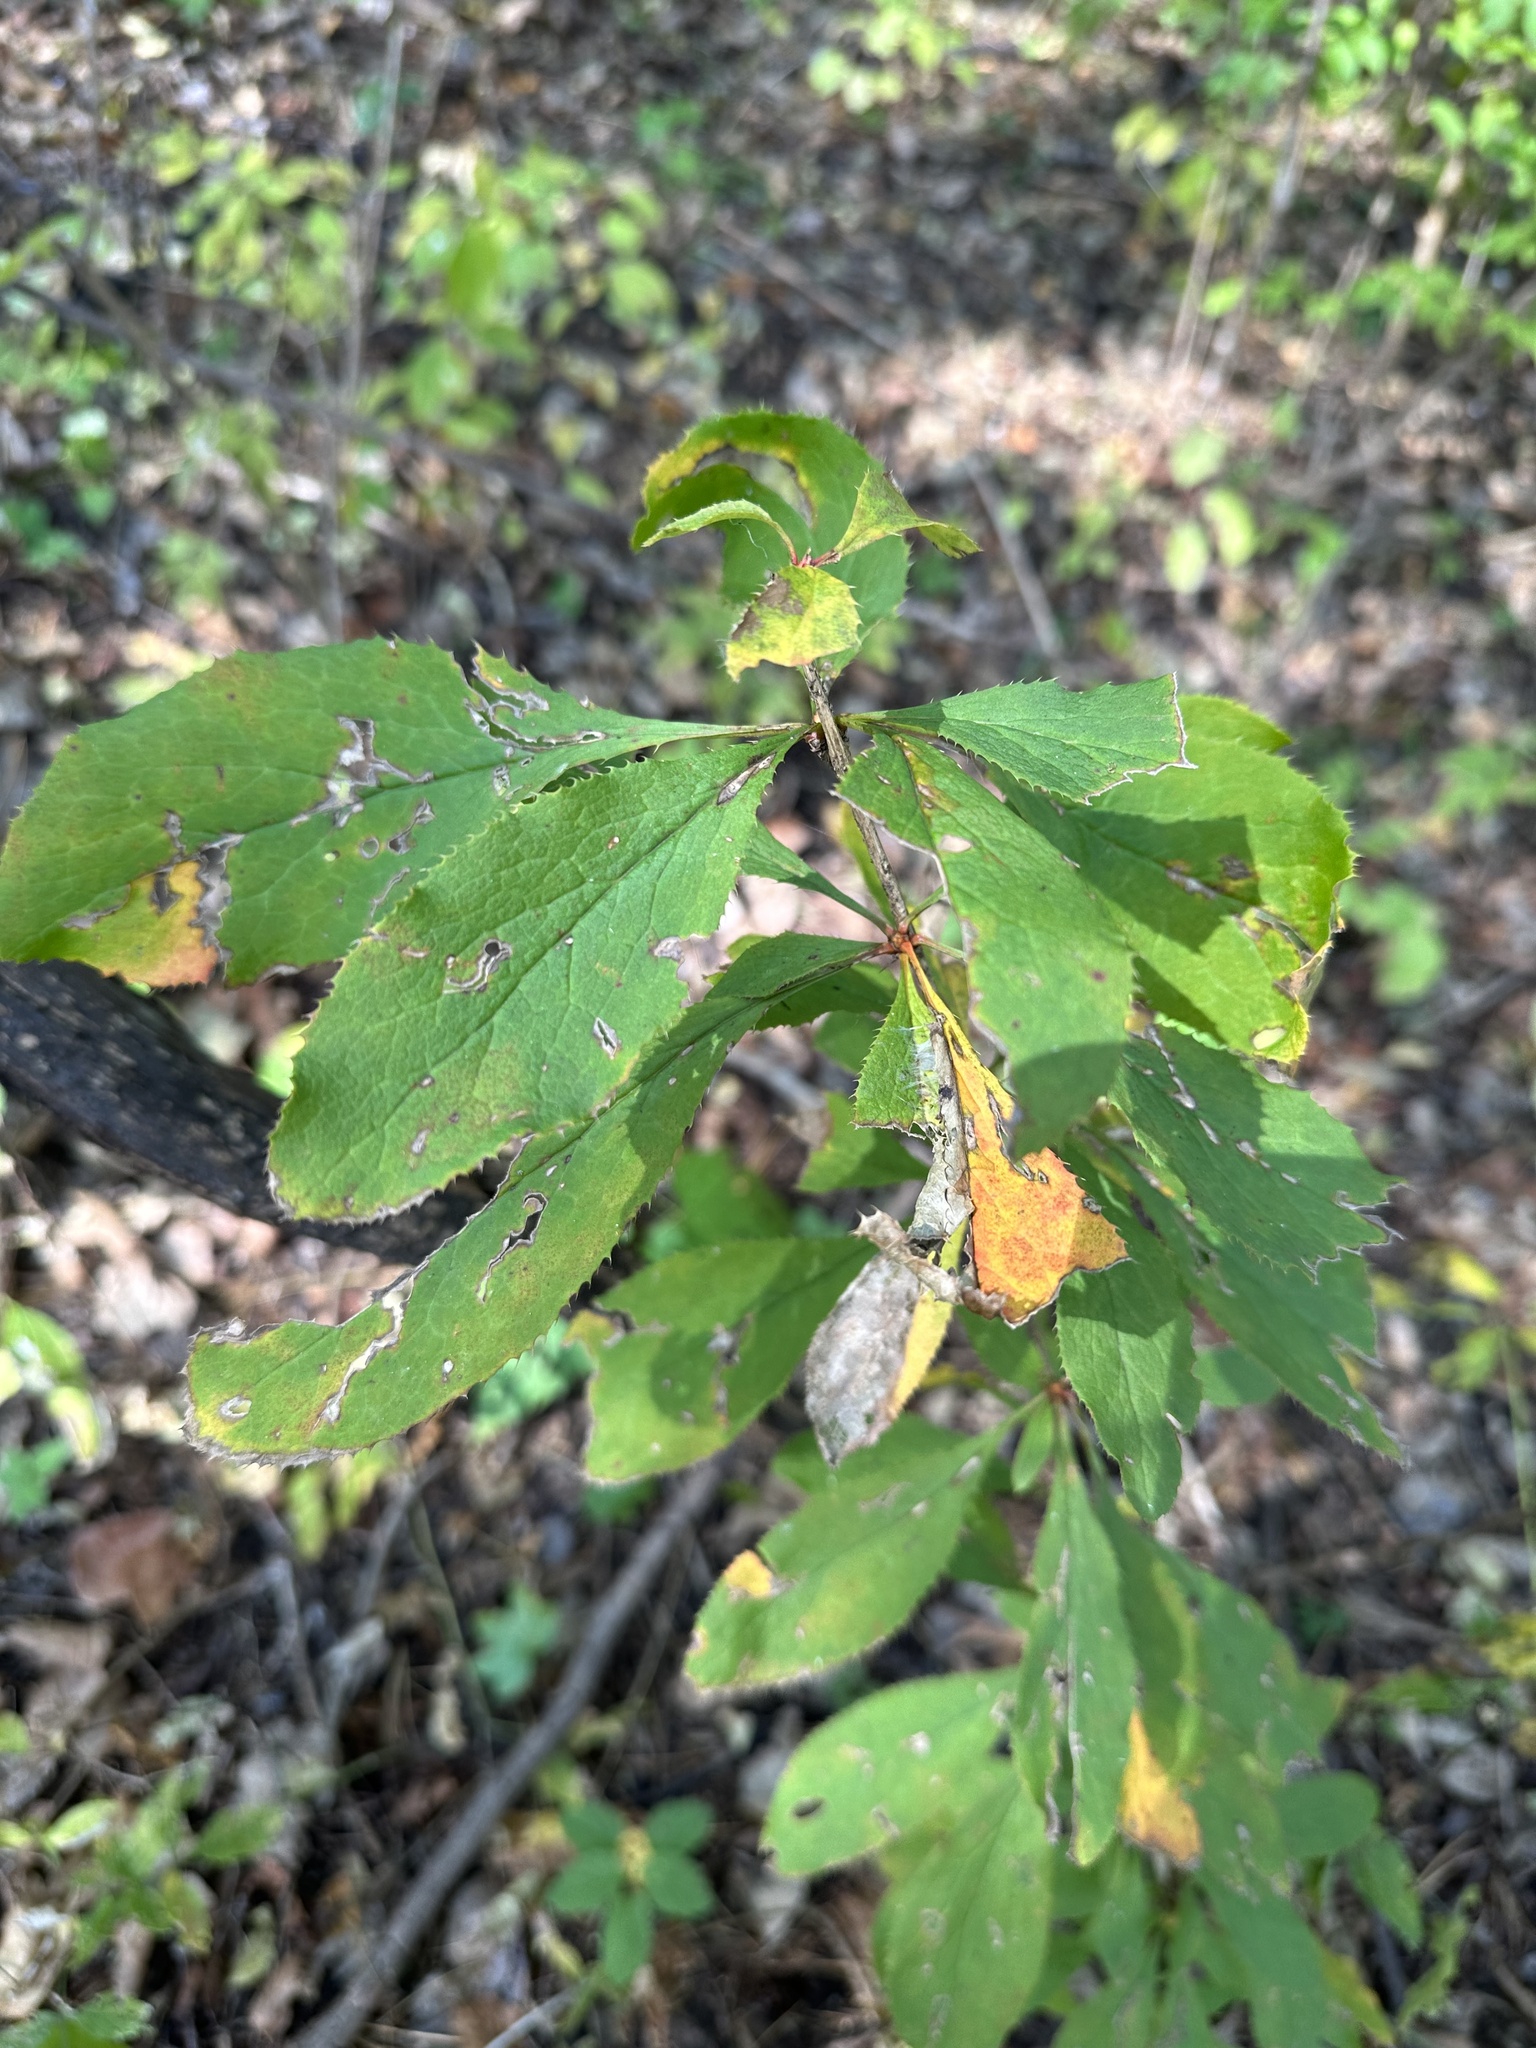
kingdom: Plantae
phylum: Tracheophyta
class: Magnoliopsida
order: Ranunculales
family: Berberidaceae
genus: Berberis
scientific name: Berberis amurensis
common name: Amur barberry
